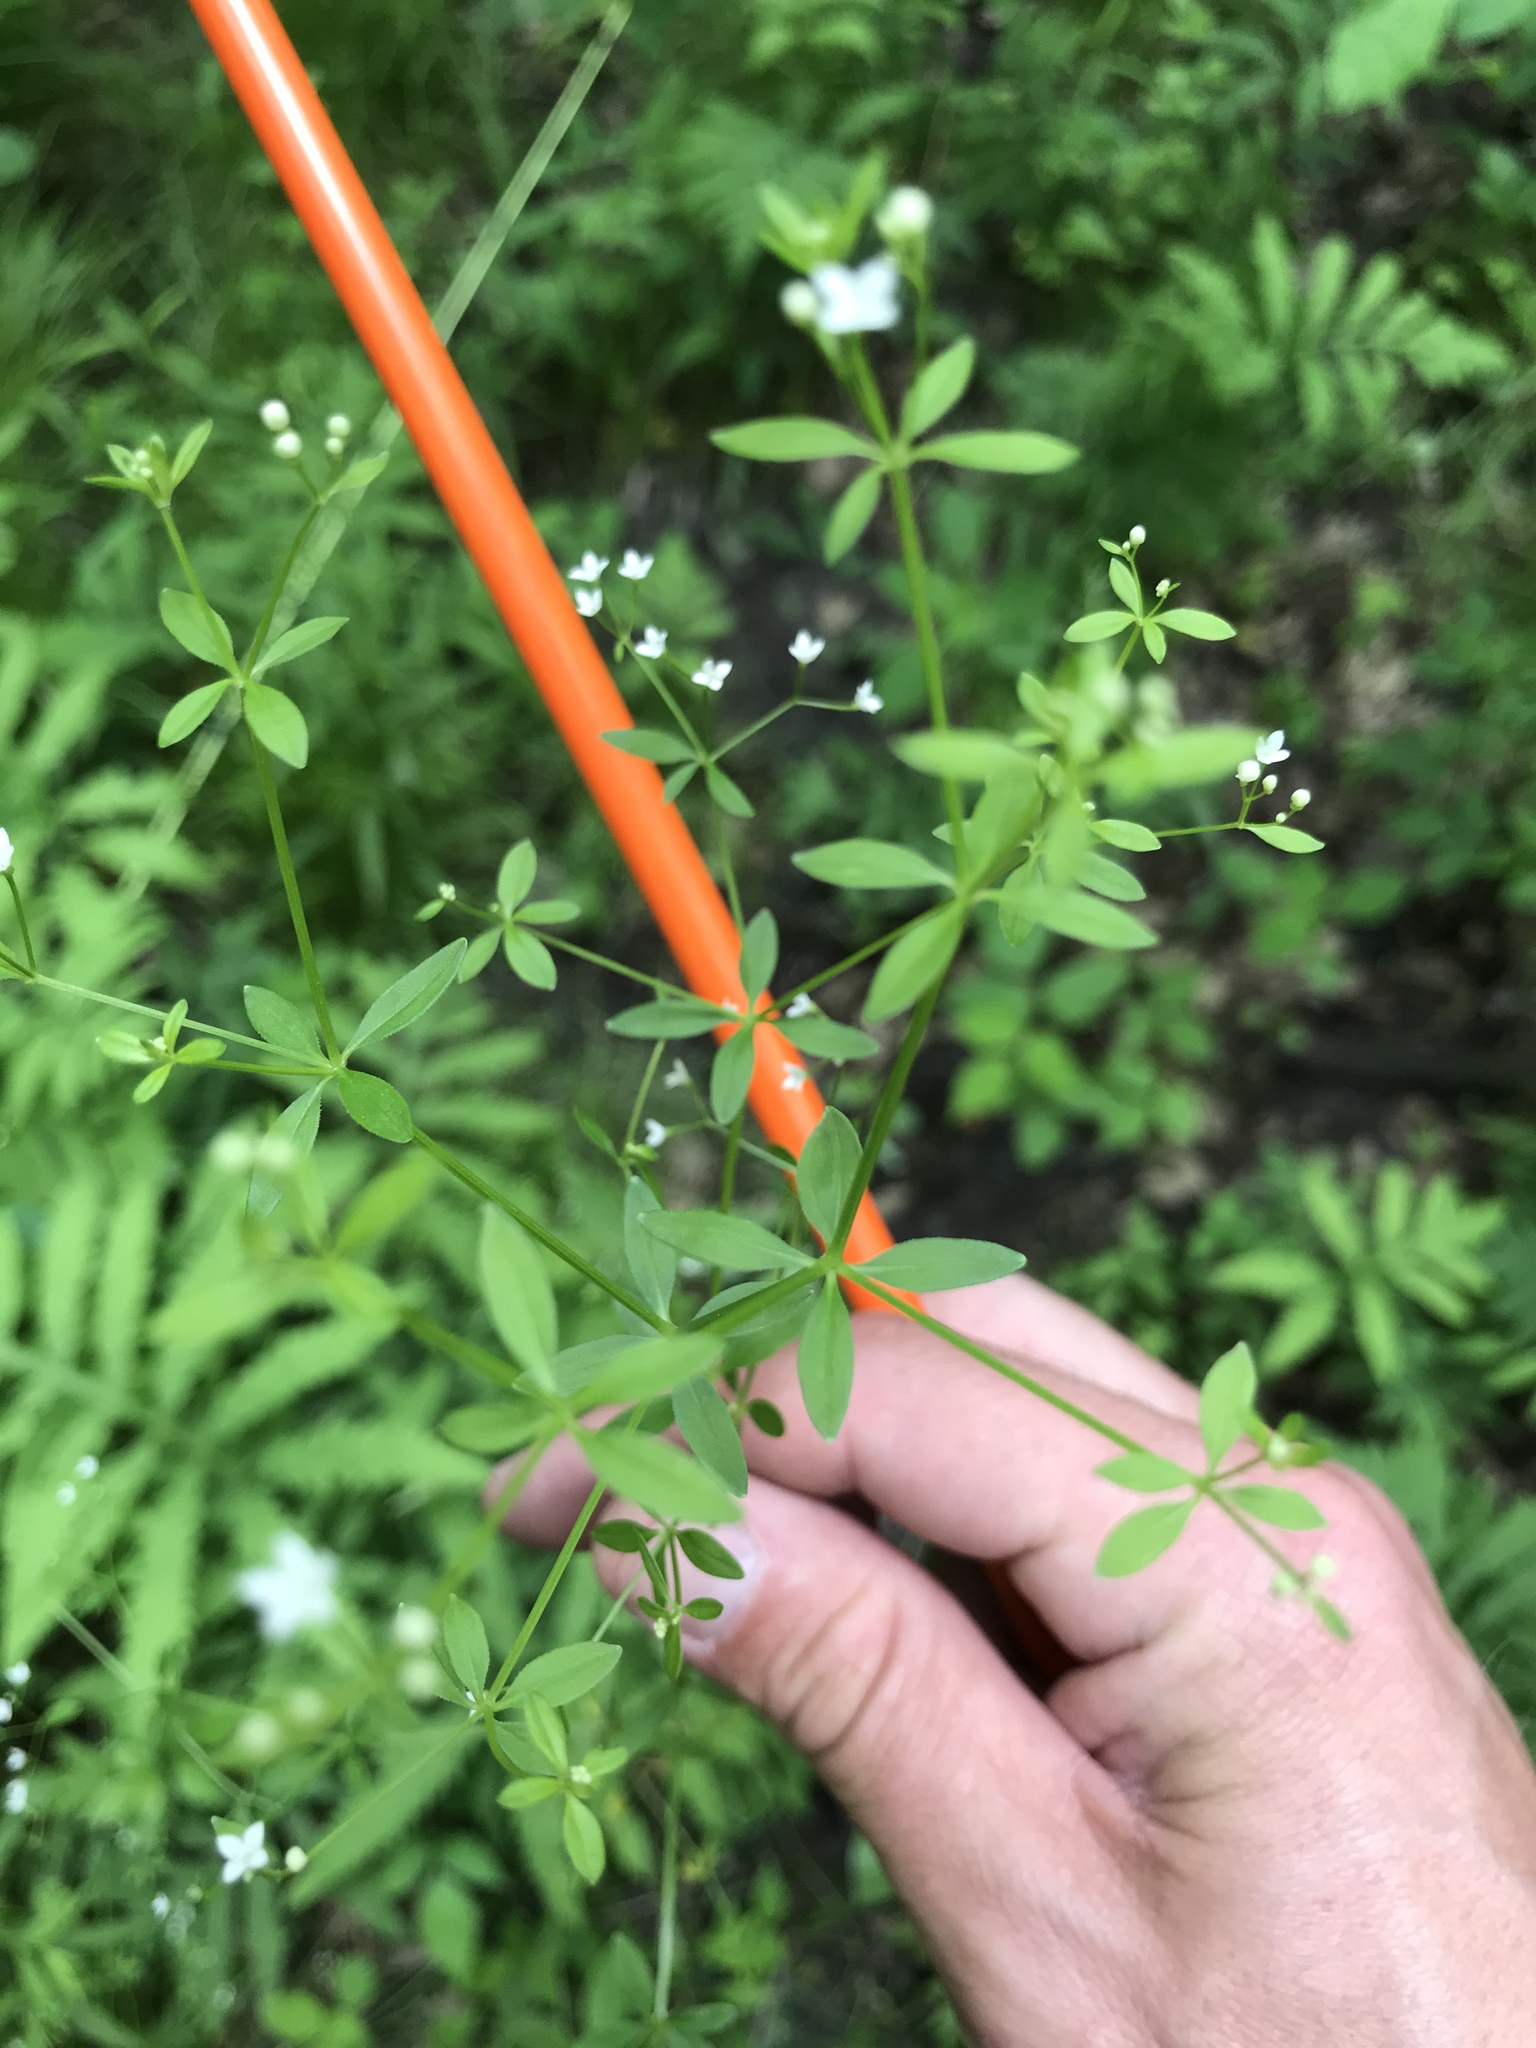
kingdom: Plantae
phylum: Tracheophyta
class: Magnoliopsida
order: Gentianales
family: Rubiaceae
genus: Galium
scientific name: Galium obtusum
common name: Blunt-leaved bedstraw
